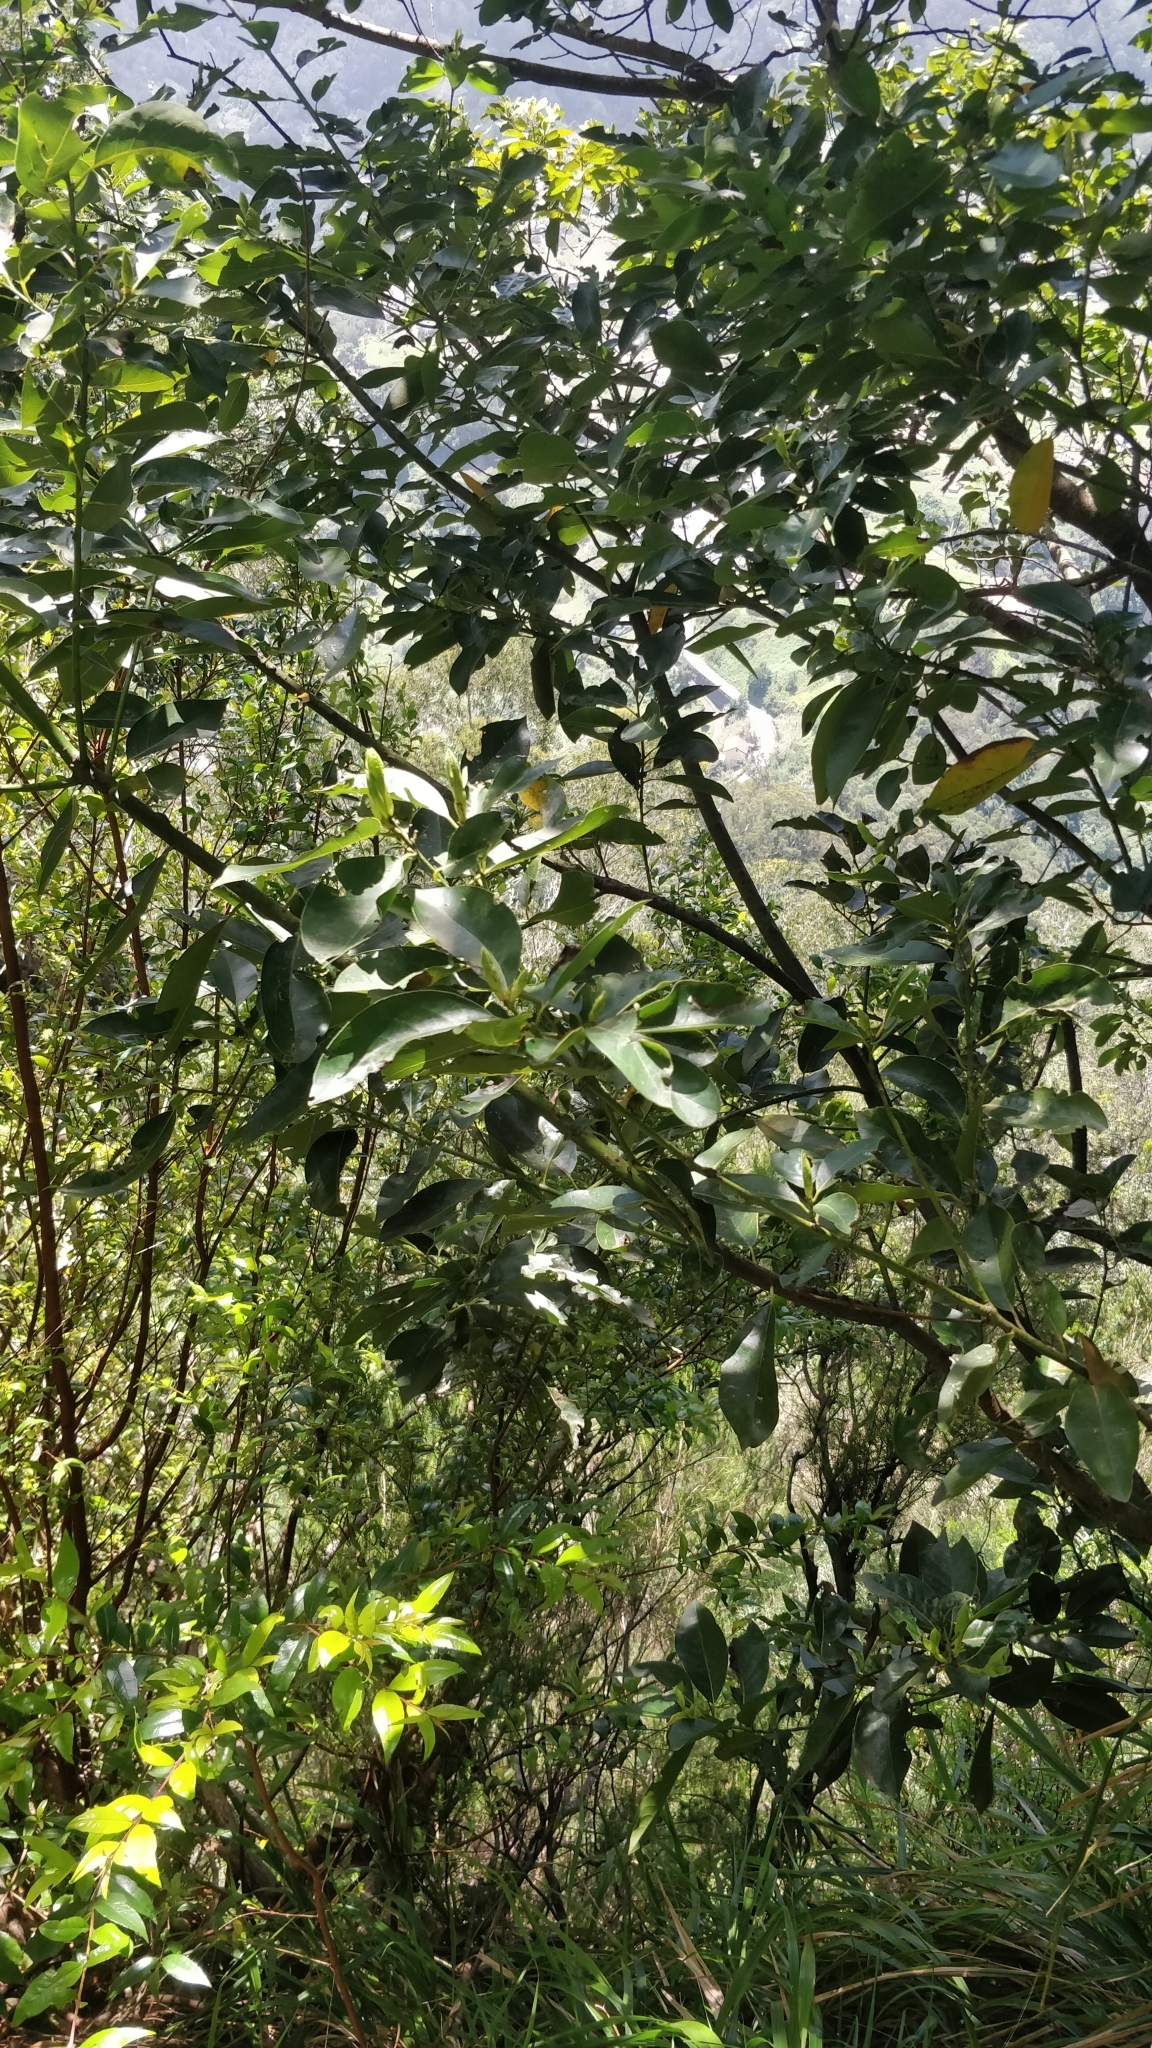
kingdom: Plantae
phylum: Tracheophyta
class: Magnoliopsida
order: Laurales
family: Lauraceae
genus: Laurus
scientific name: Laurus novocanariensis
